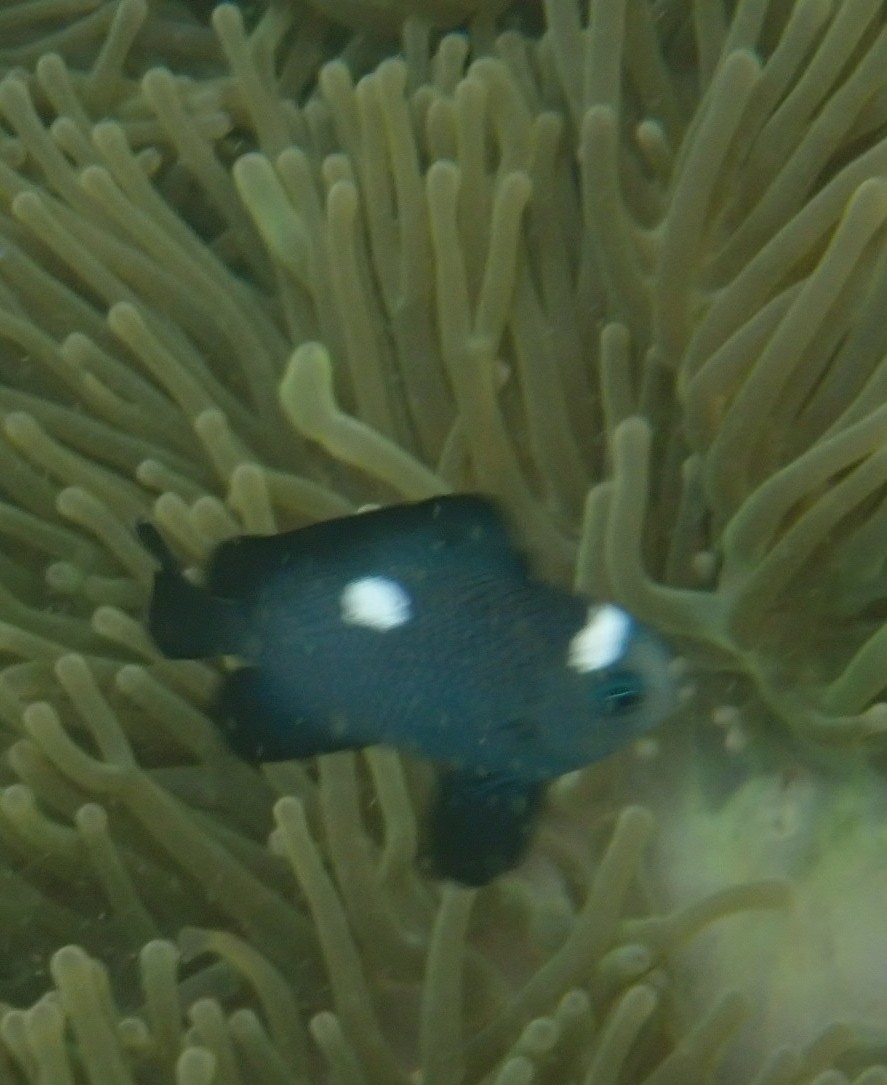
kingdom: Animalia
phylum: Chordata
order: Perciformes
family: Pomacentridae
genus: Dascyllus
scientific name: Dascyllus trimaculatus
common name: Threespot dascyllus
